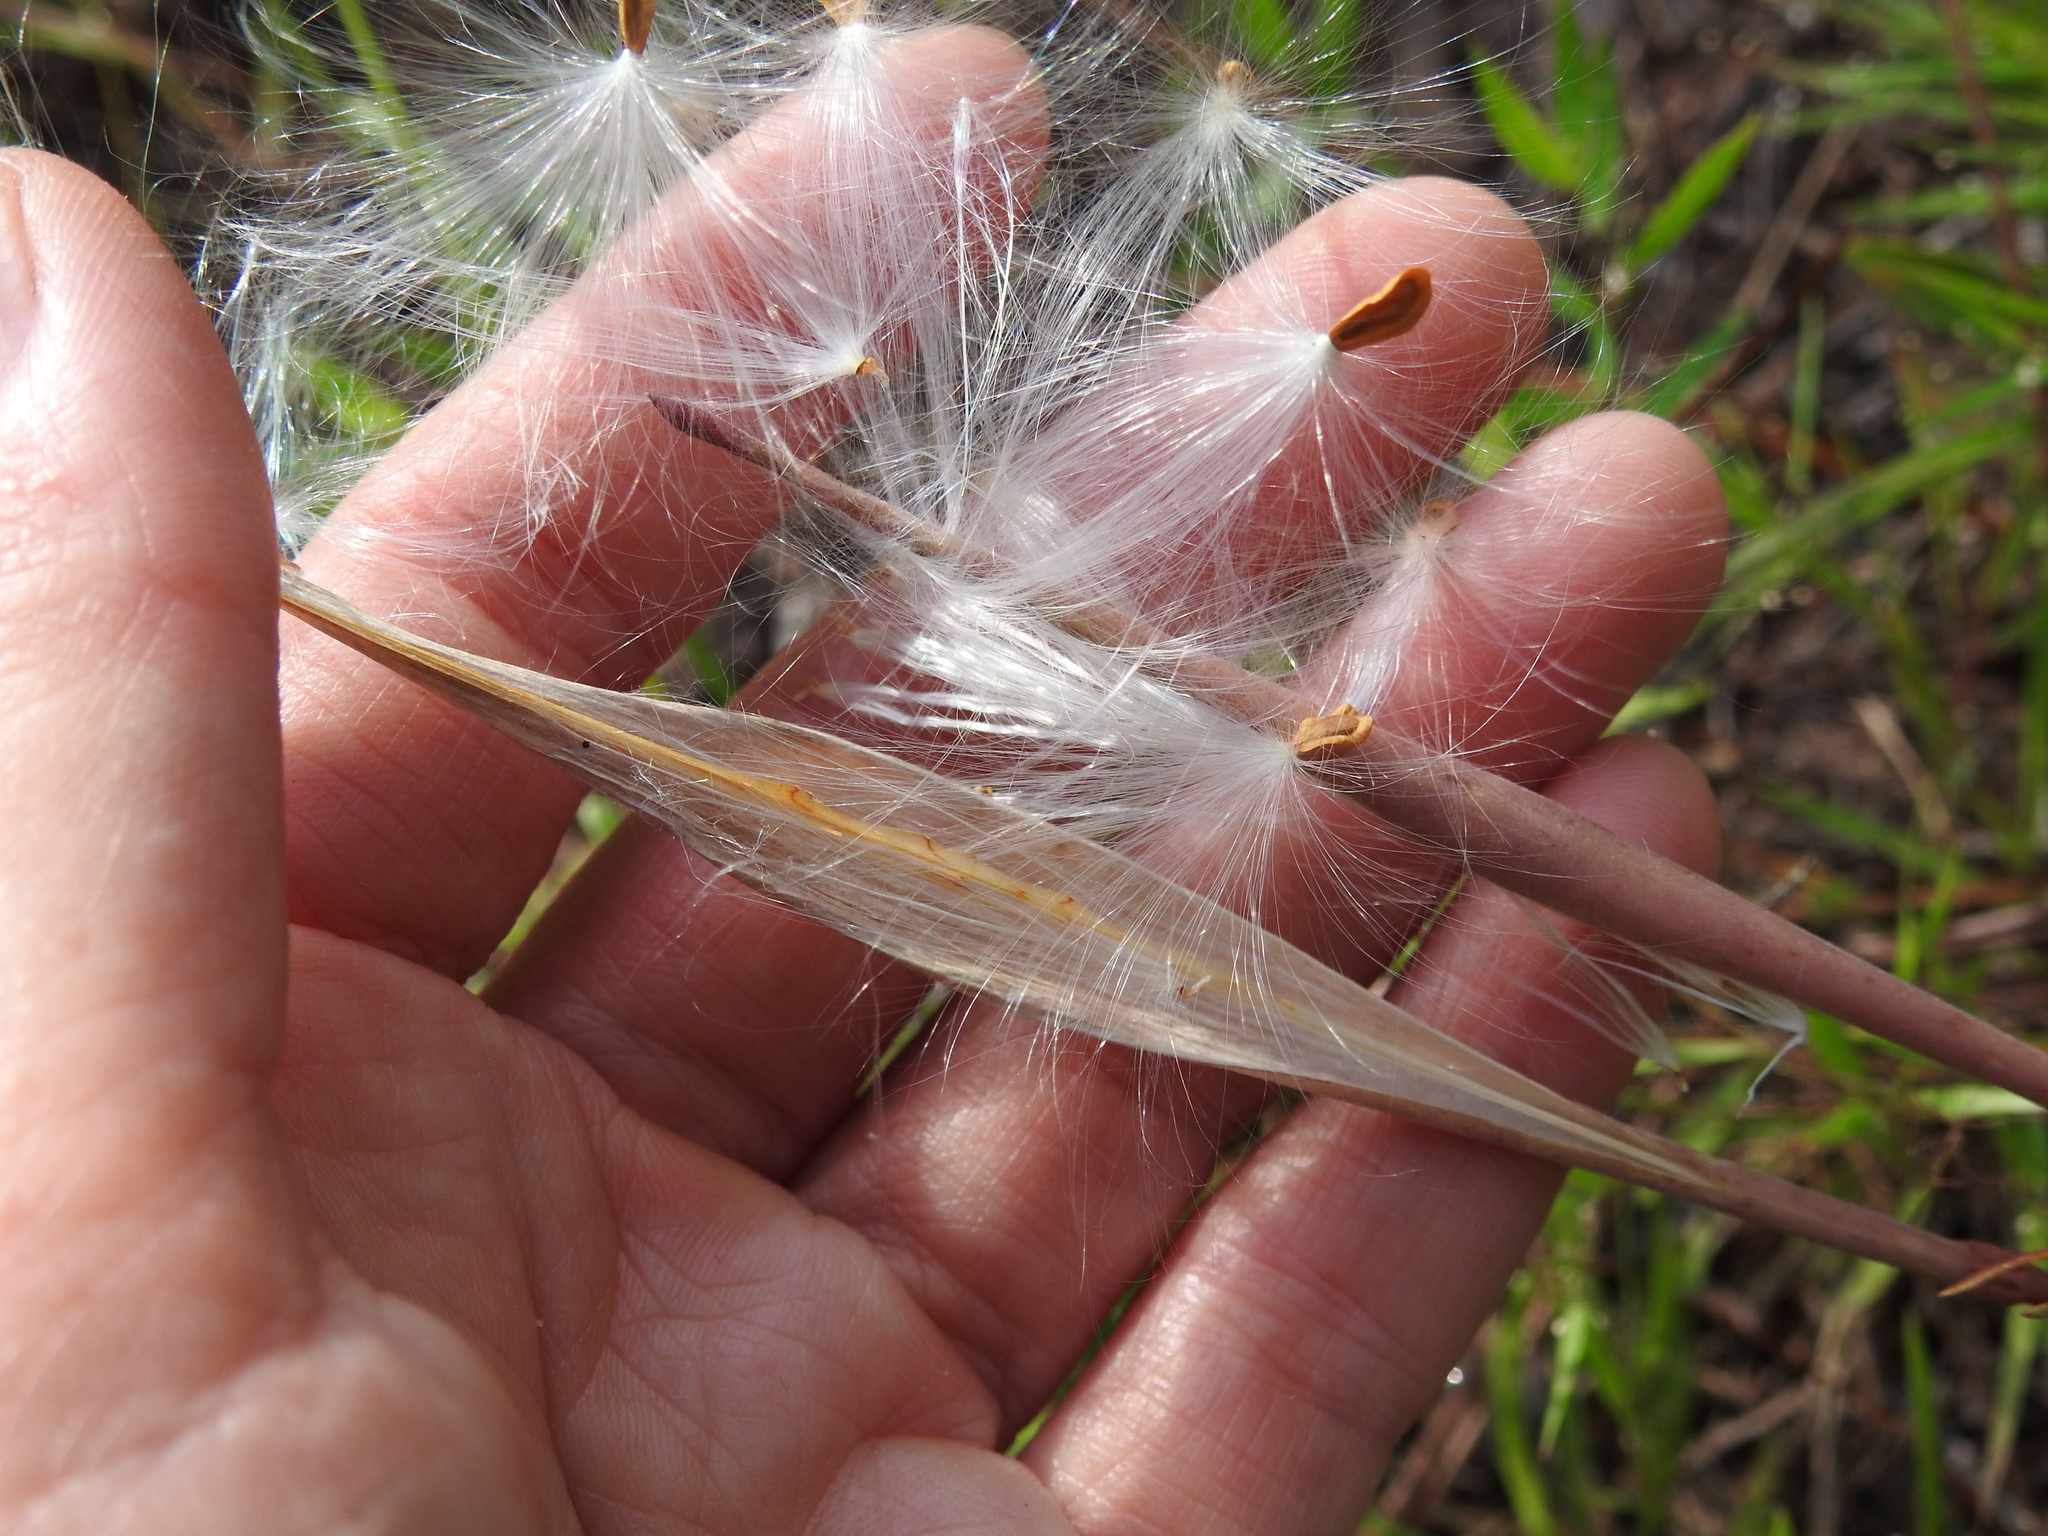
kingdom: Plantae
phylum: Tracheophyta
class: Magnoliopsida
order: Gentianales
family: Apocynaceae
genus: Asclepias
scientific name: Asclepias pedicellata
